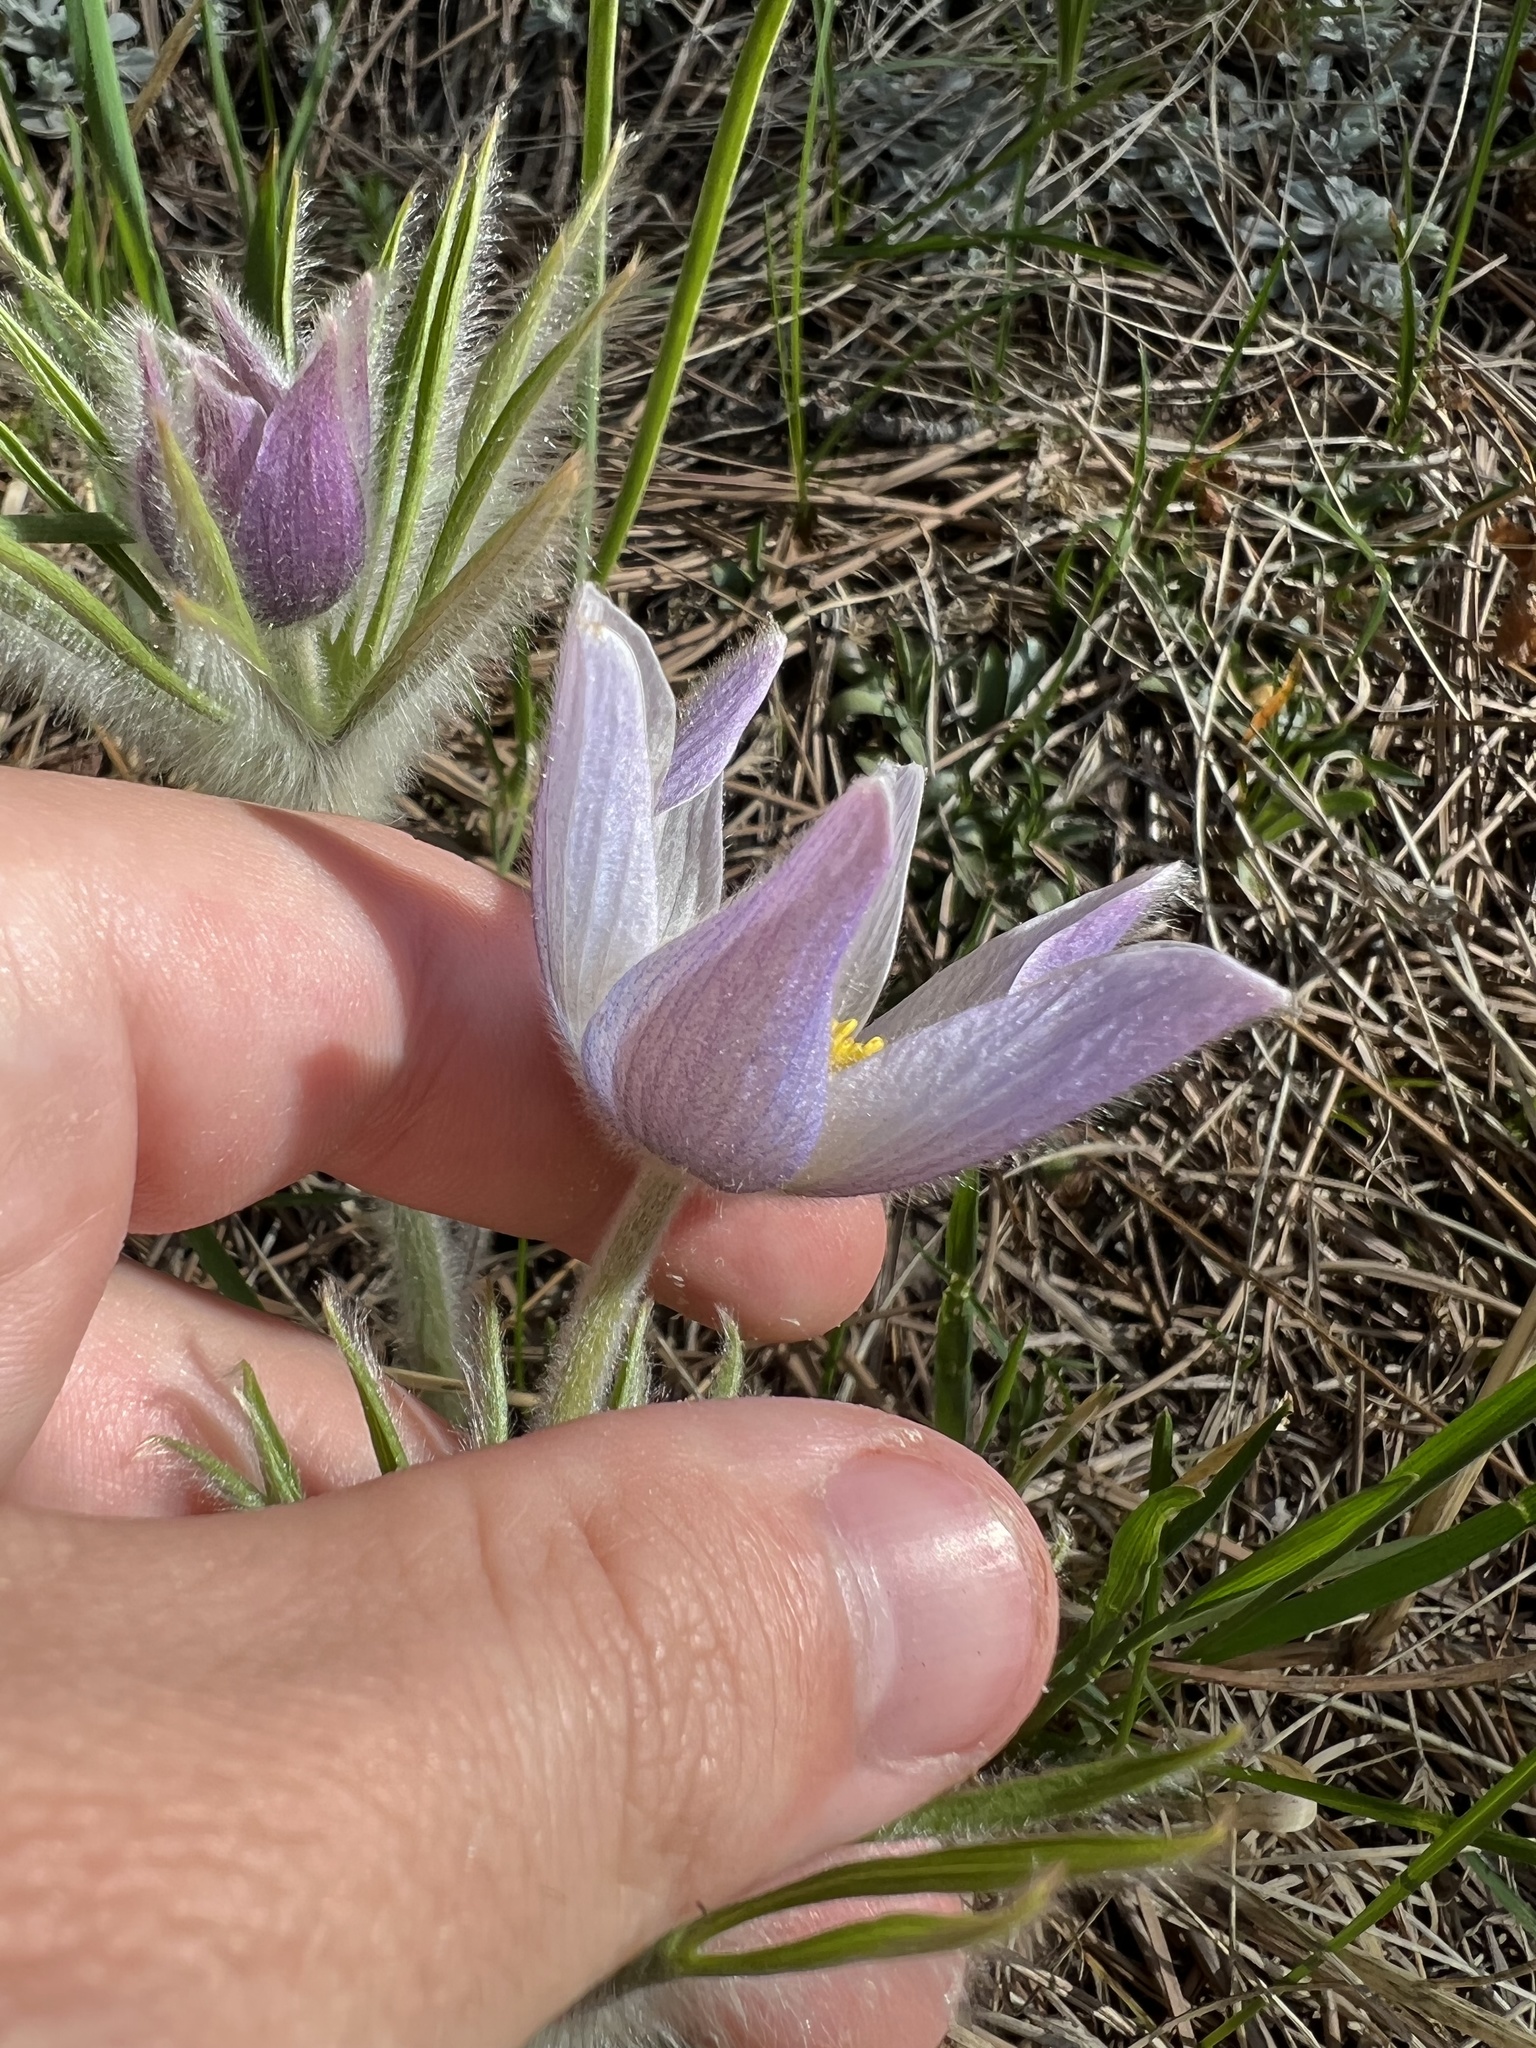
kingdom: Plantae
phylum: Tracheophyta
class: Magnoliopsida
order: Ranunculales
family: Ranunculaceae
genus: Pulsatilla
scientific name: Pulsatilla nuttalliana
